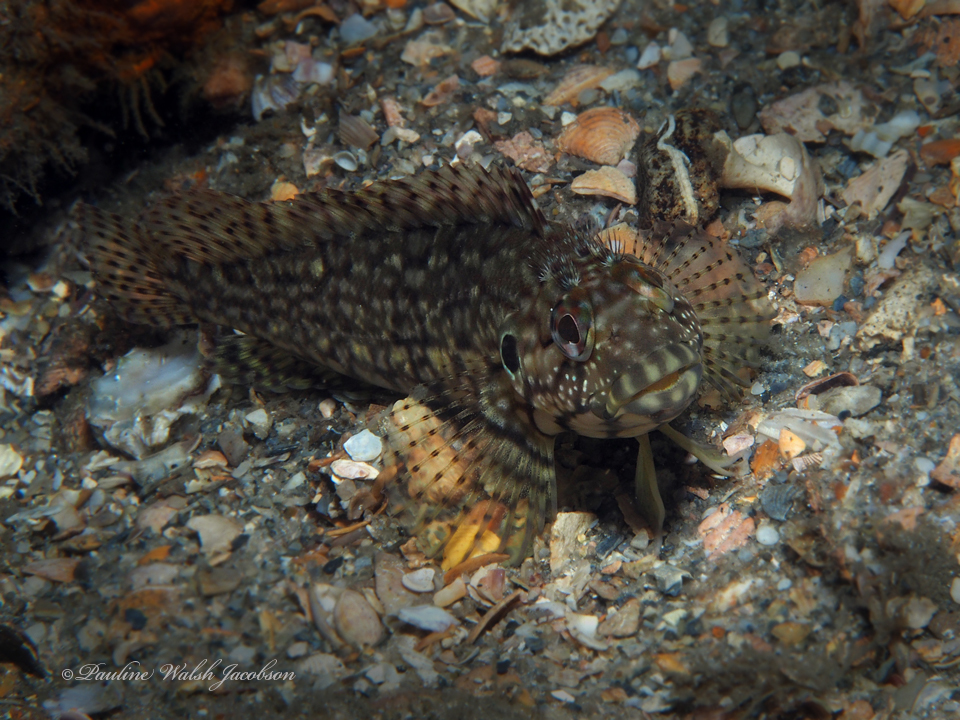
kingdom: Animalia
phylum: Chordata
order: Perciformes
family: Labrisomidae
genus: Labrisomus
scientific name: Labrisomus conditus
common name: Masquerader hairy blenny
